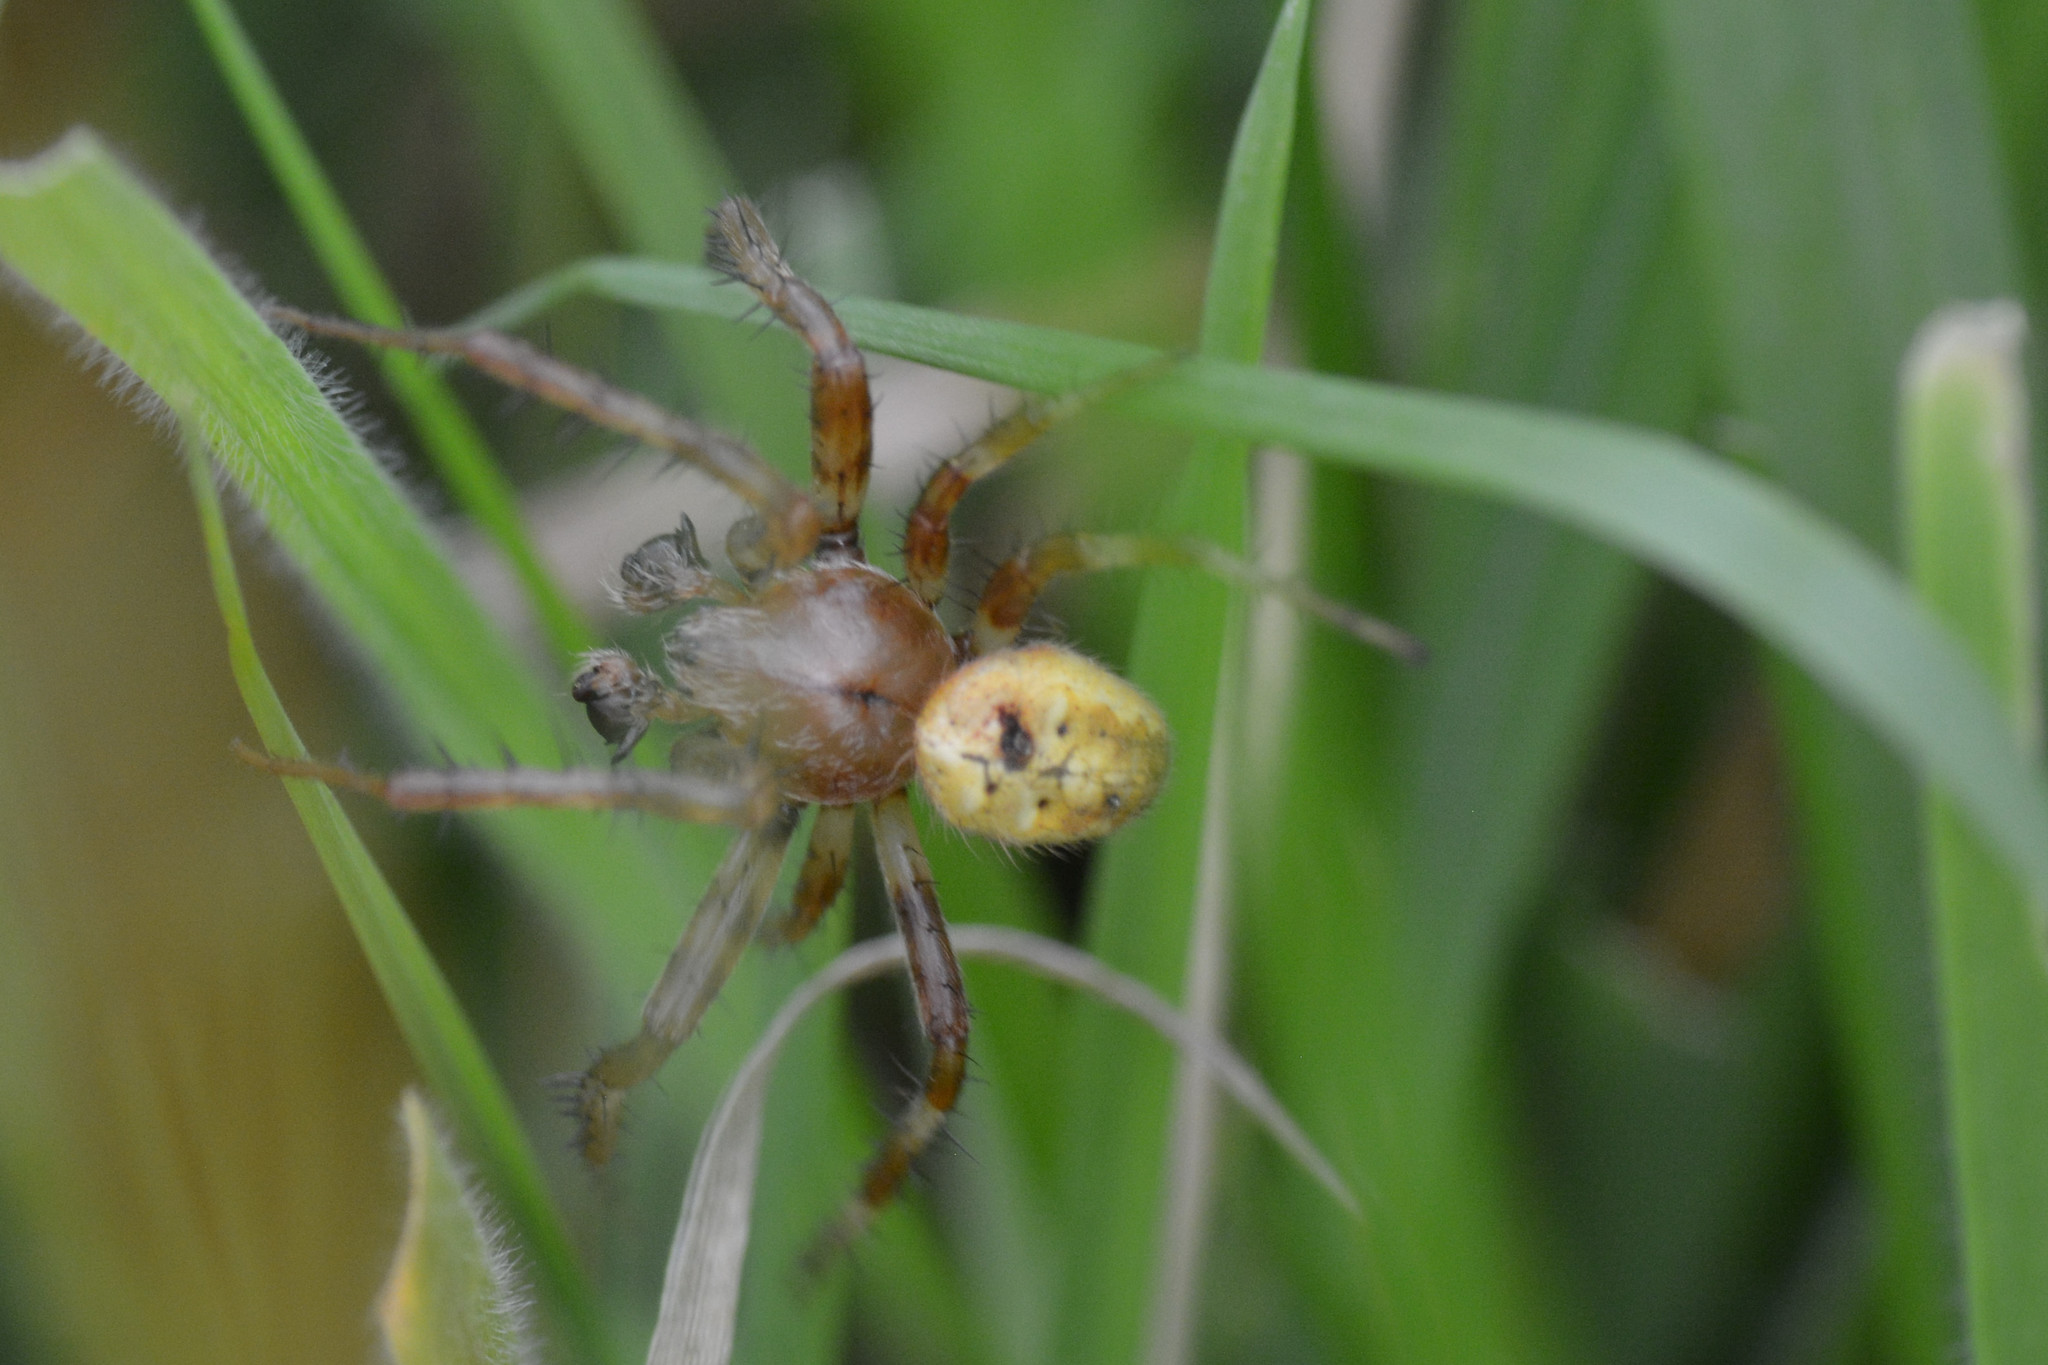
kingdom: Animalia
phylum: Arthropoda
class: Arachnida
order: Araneae
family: Araneidae
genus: Araneus
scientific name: Araneus quadratus
